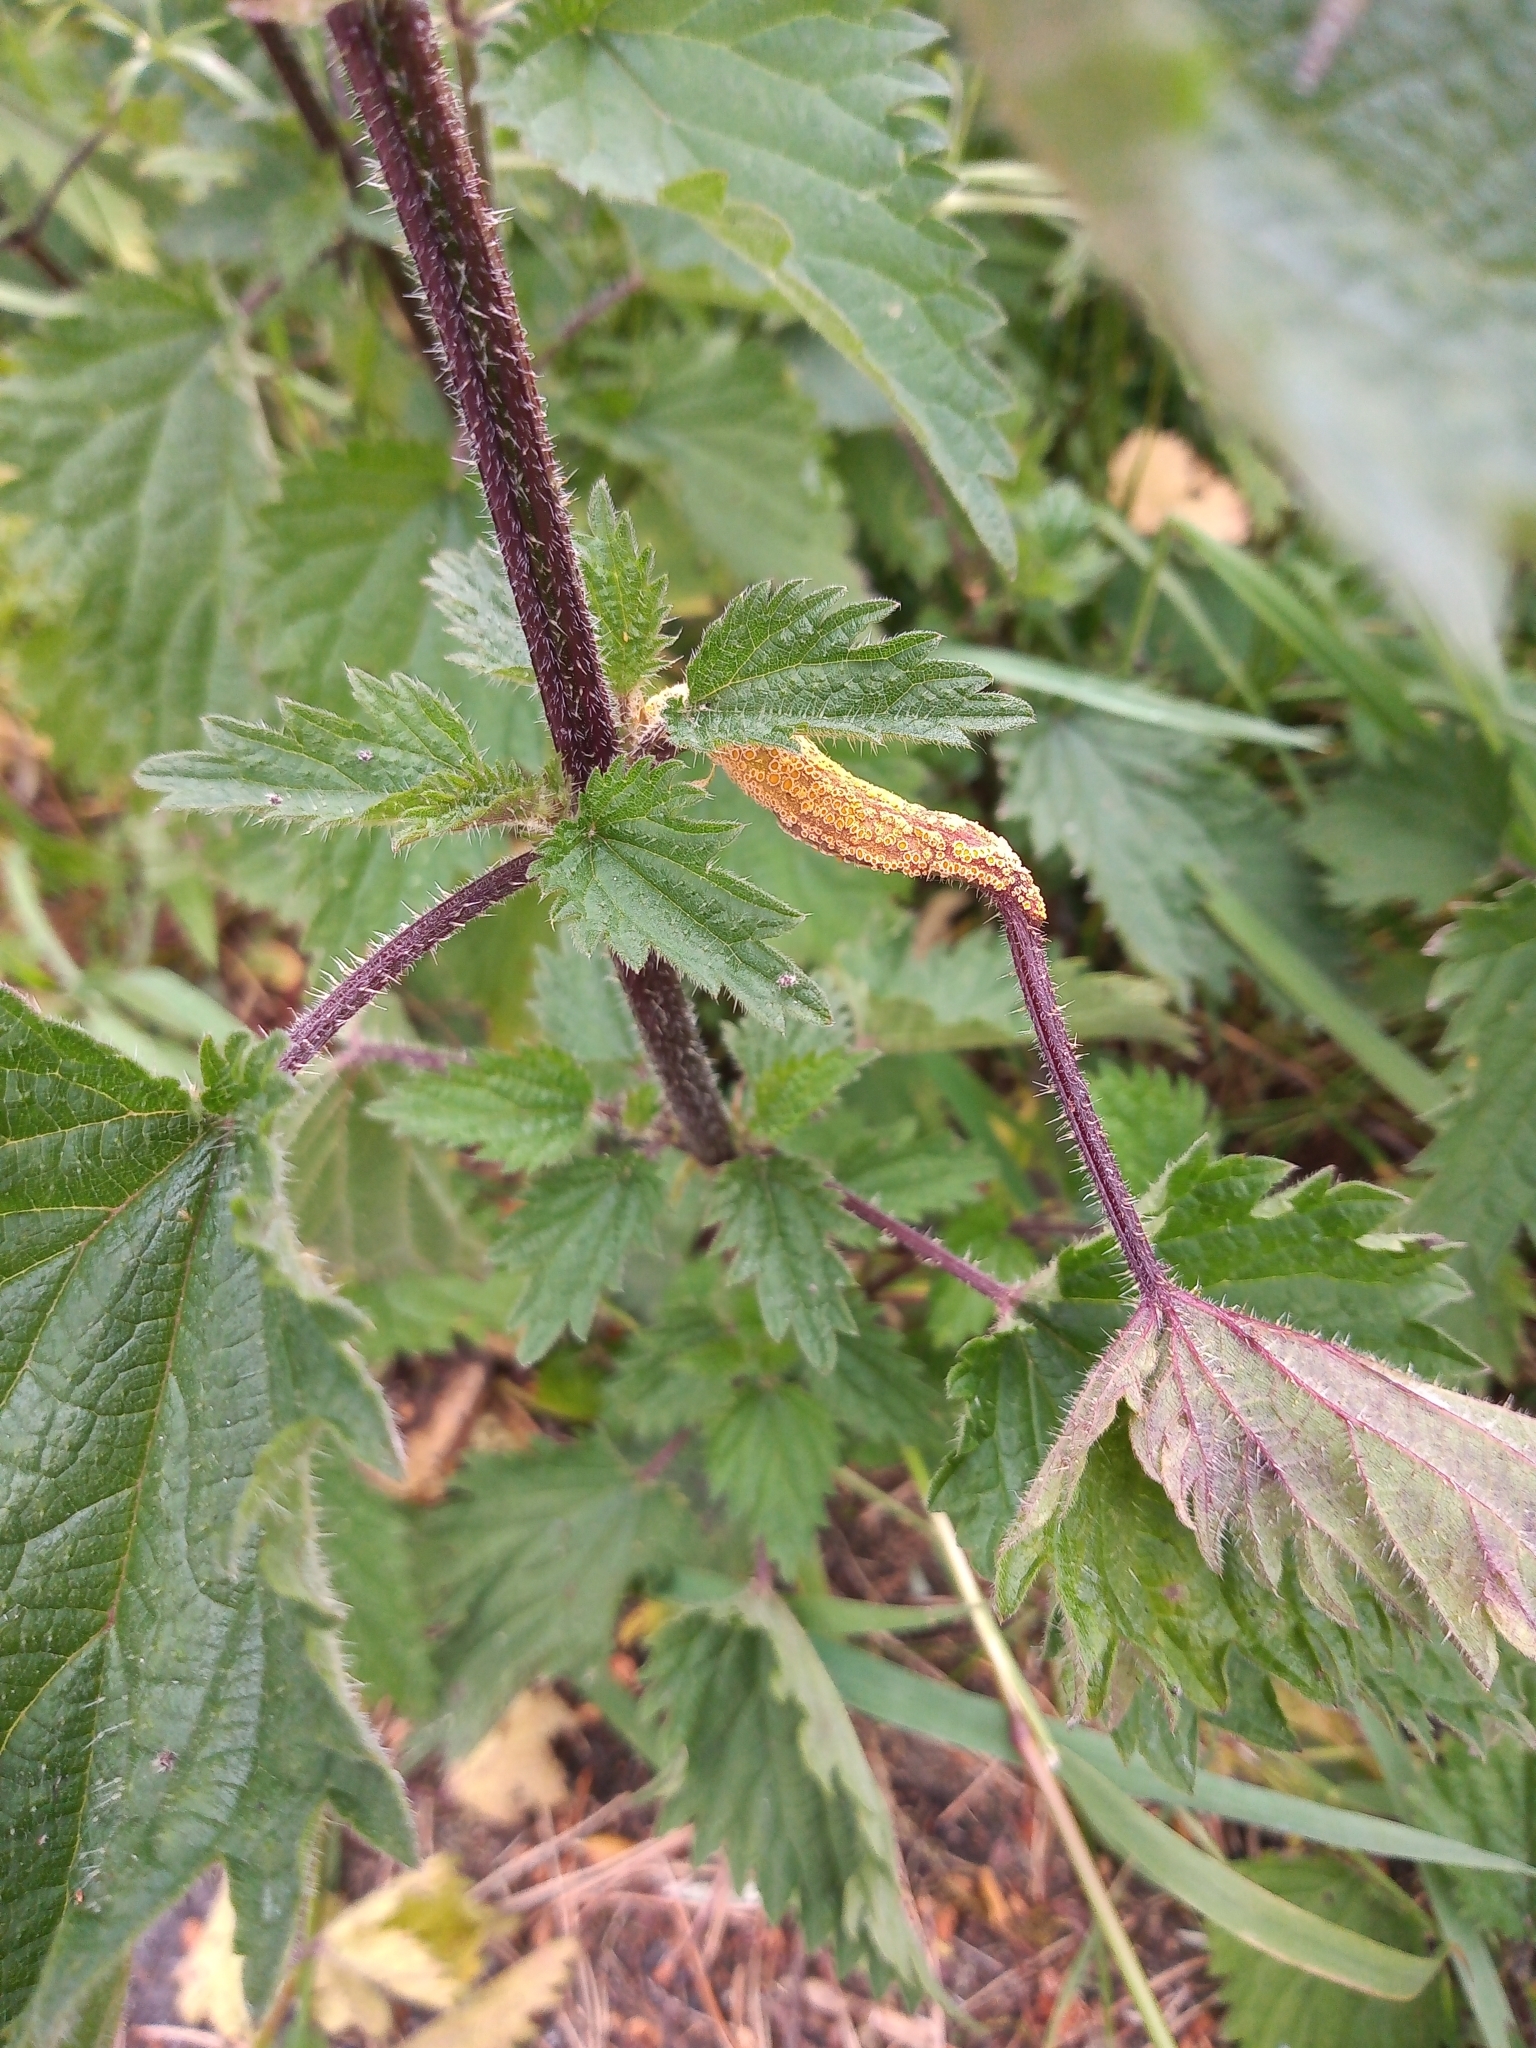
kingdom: Fungi
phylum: Basidiomycota
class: Pucciniomycetes
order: Pucciniales
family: Pucciniaceae
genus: Puccinia
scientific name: Puccinia urticata
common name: Nettle clustercup rust fungus
